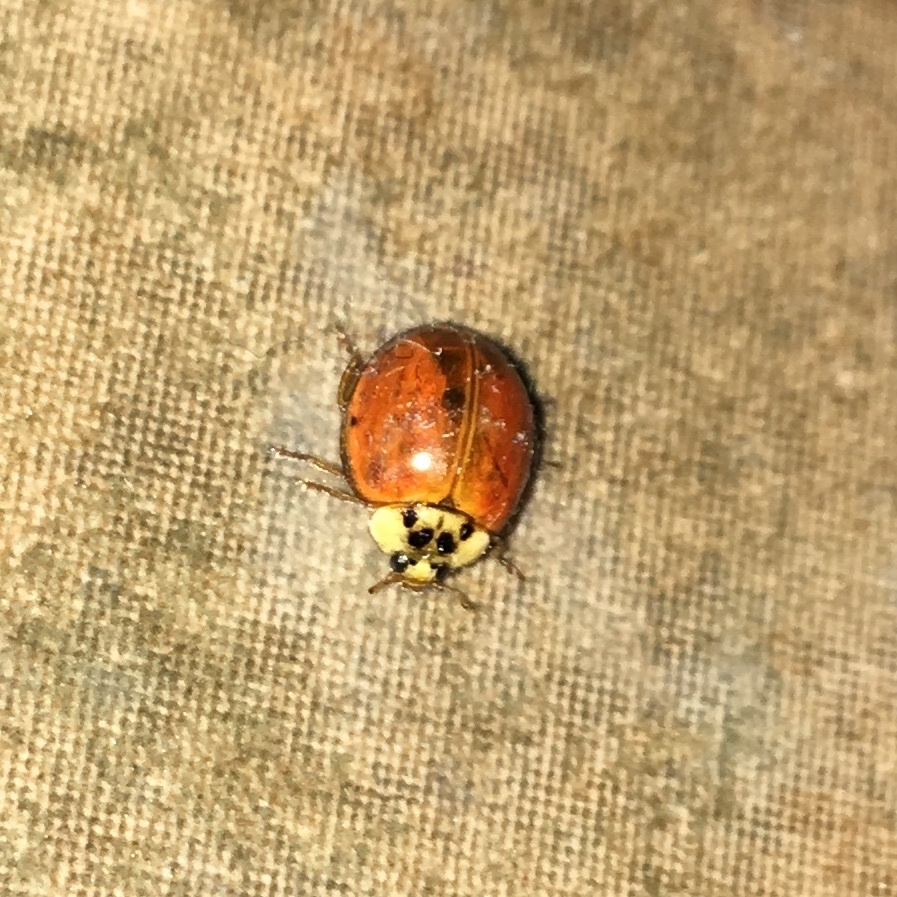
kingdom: Animalia
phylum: Arthropoda
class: Insecta
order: Coleoptera
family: Coccinellidae
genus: Harmonia
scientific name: Harmonia axyridis
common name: Harlequin ladybird
